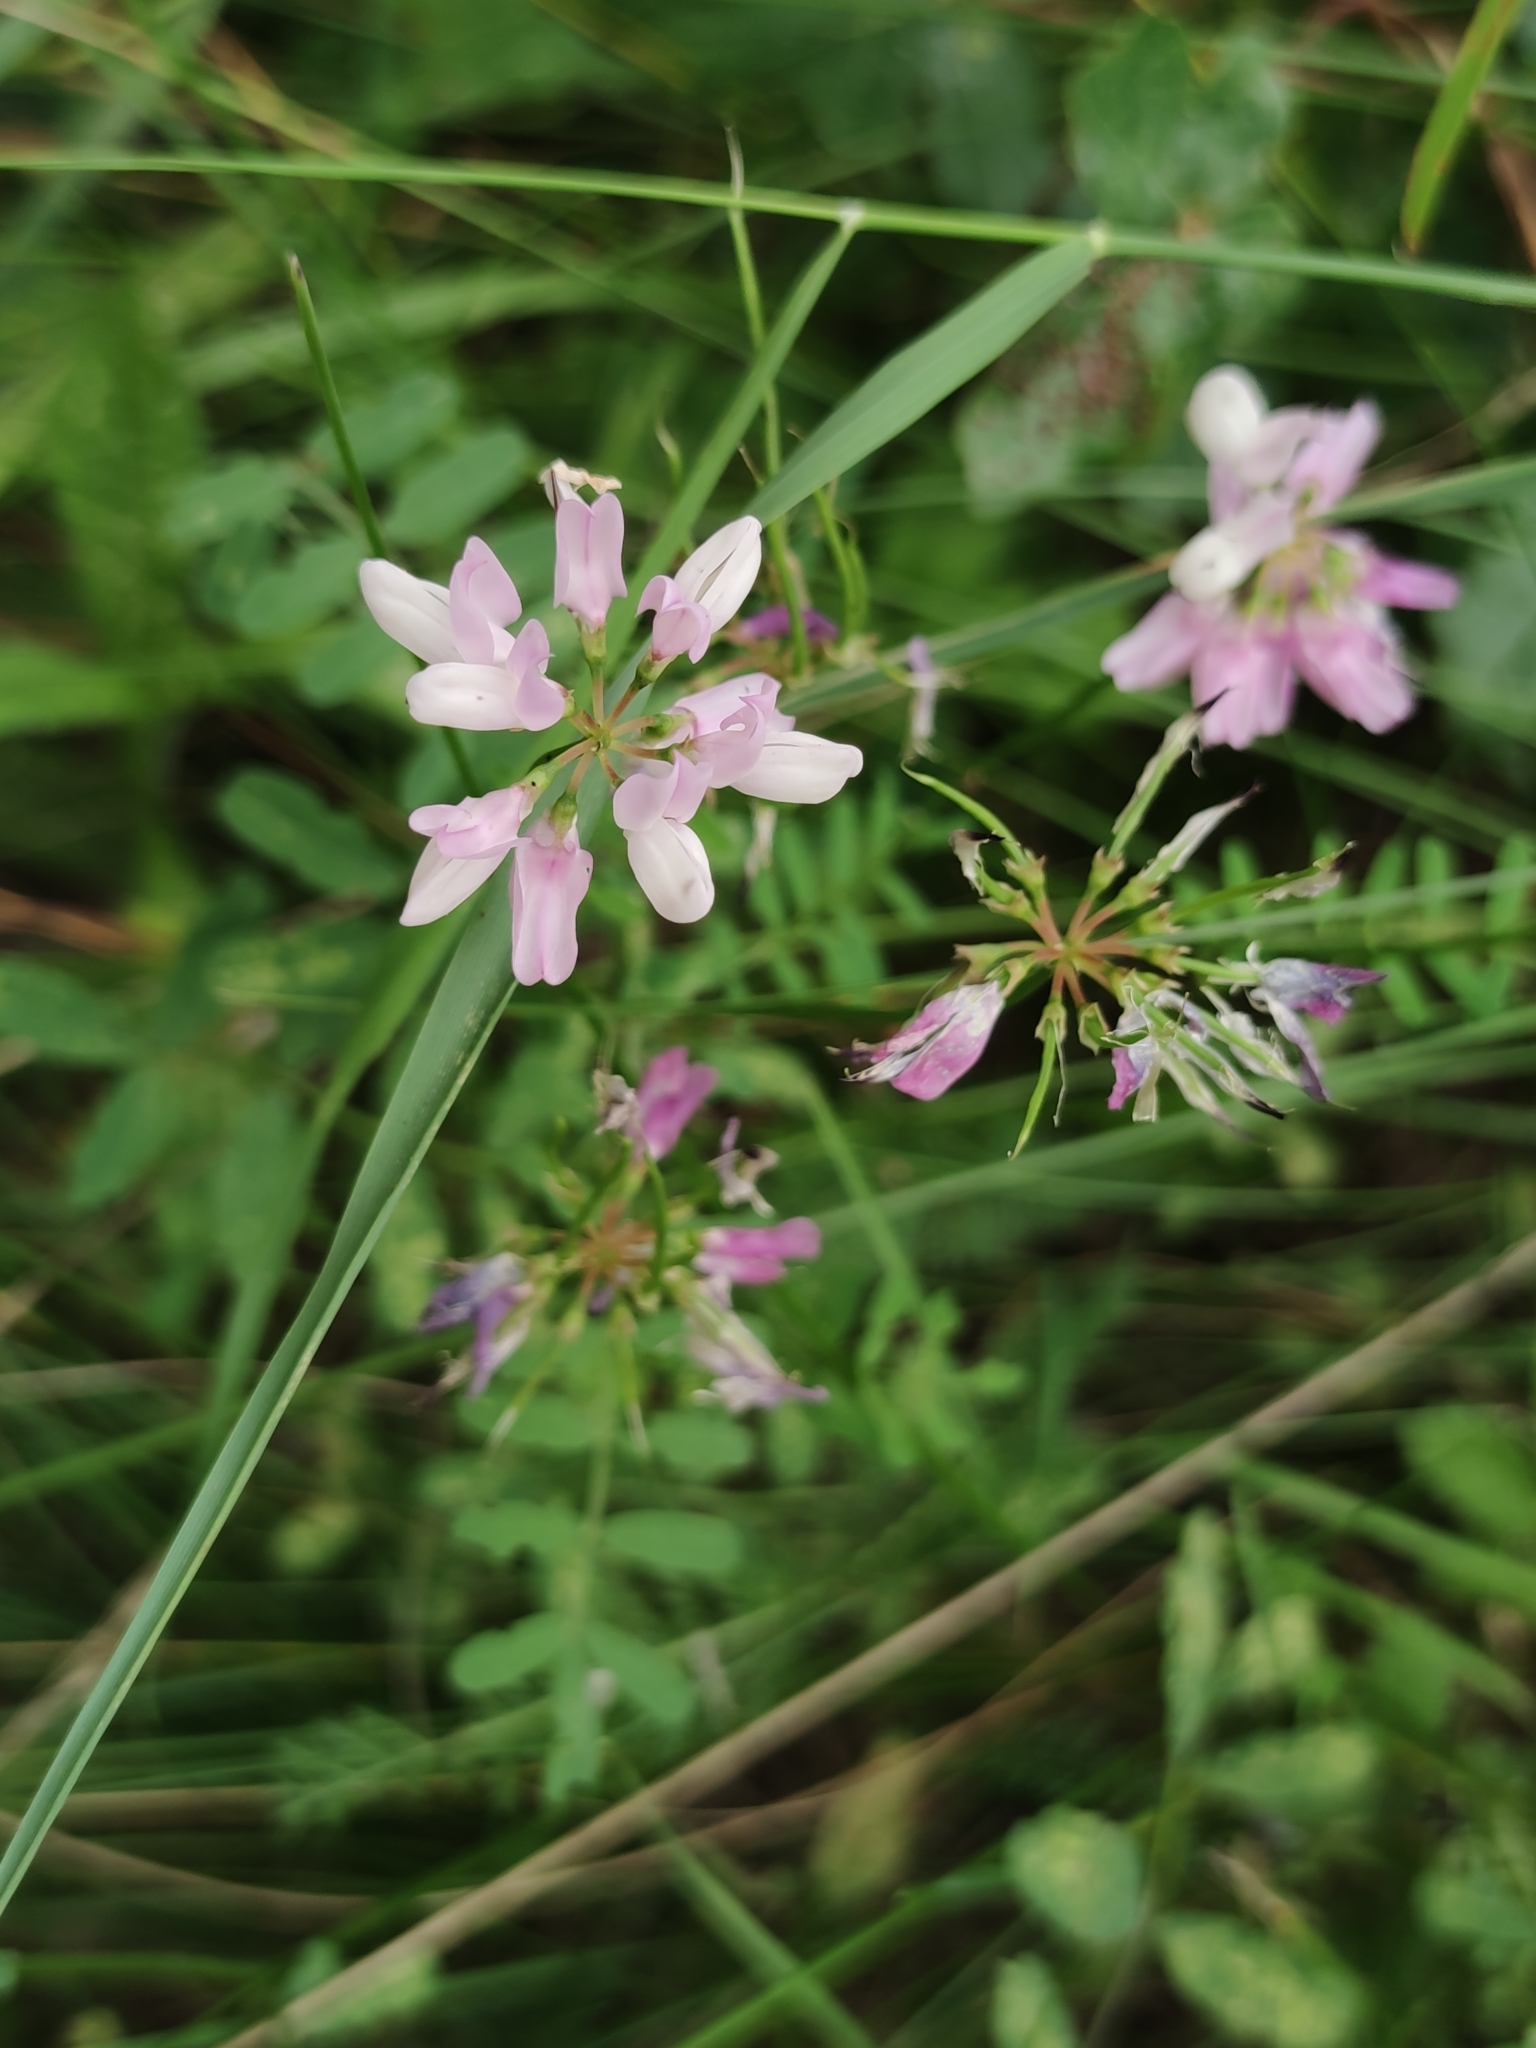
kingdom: Plantae
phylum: Tracheophyta
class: Magnoliopsida
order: Fabales
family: Fabaceae
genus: Coronilla
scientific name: Coronilla varia
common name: Crownvetch
